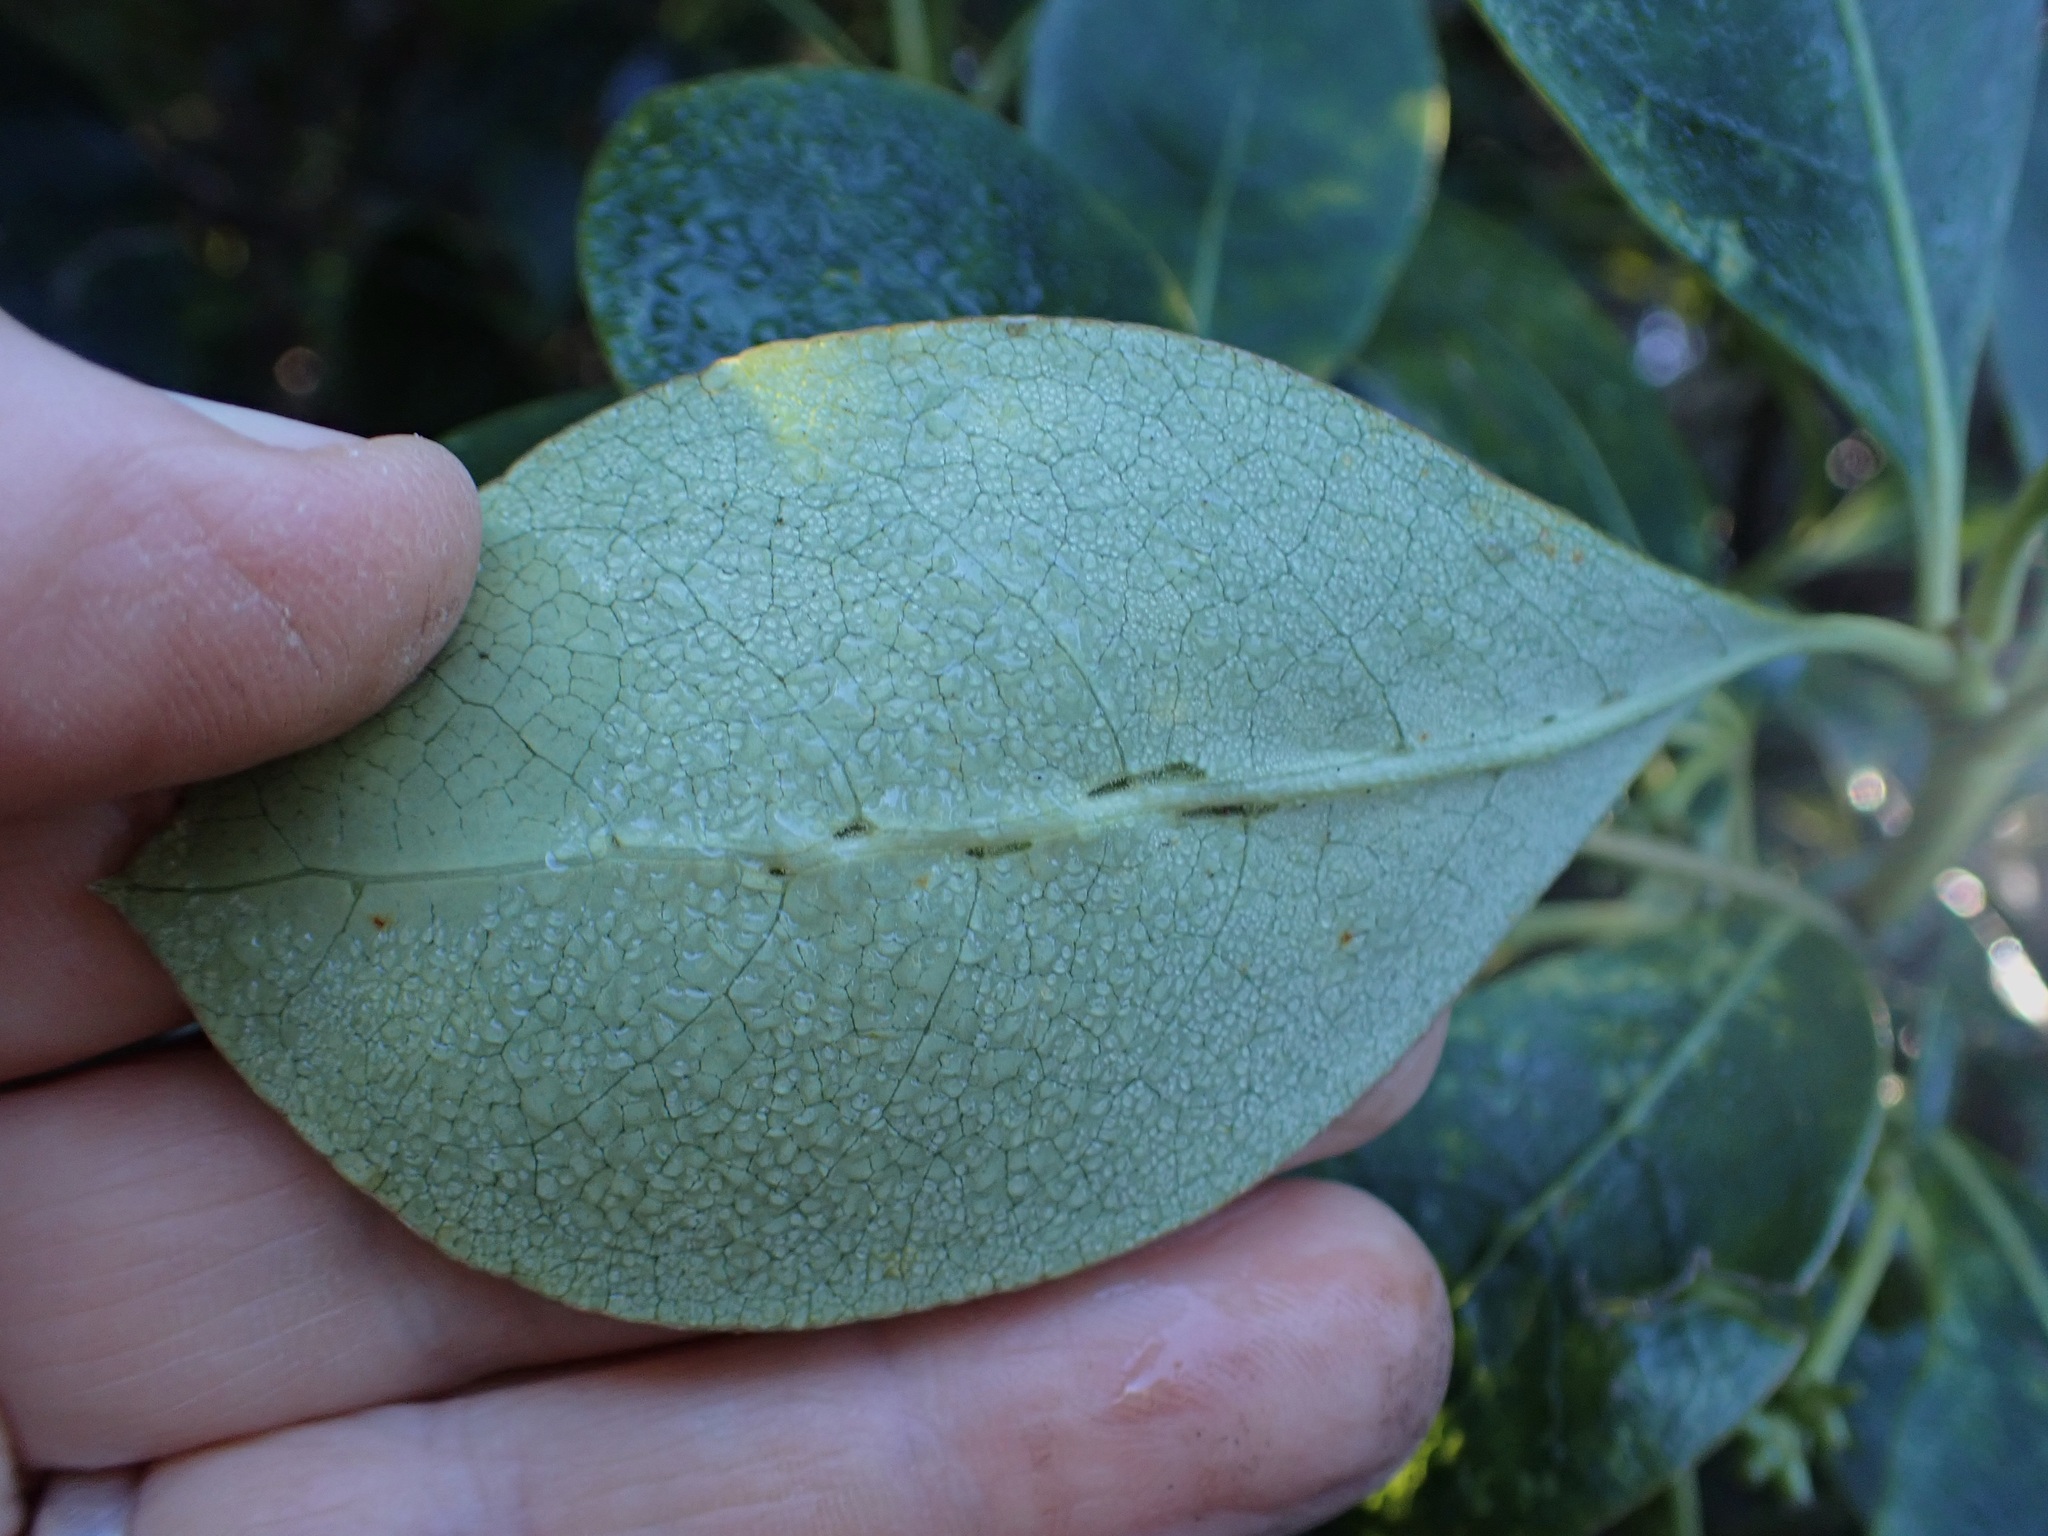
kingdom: Plantae
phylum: Tracheophyta
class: Magnoliopsida
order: Gentianales
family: Rubiaceae
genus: Coprosma
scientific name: Coprosma lucida
